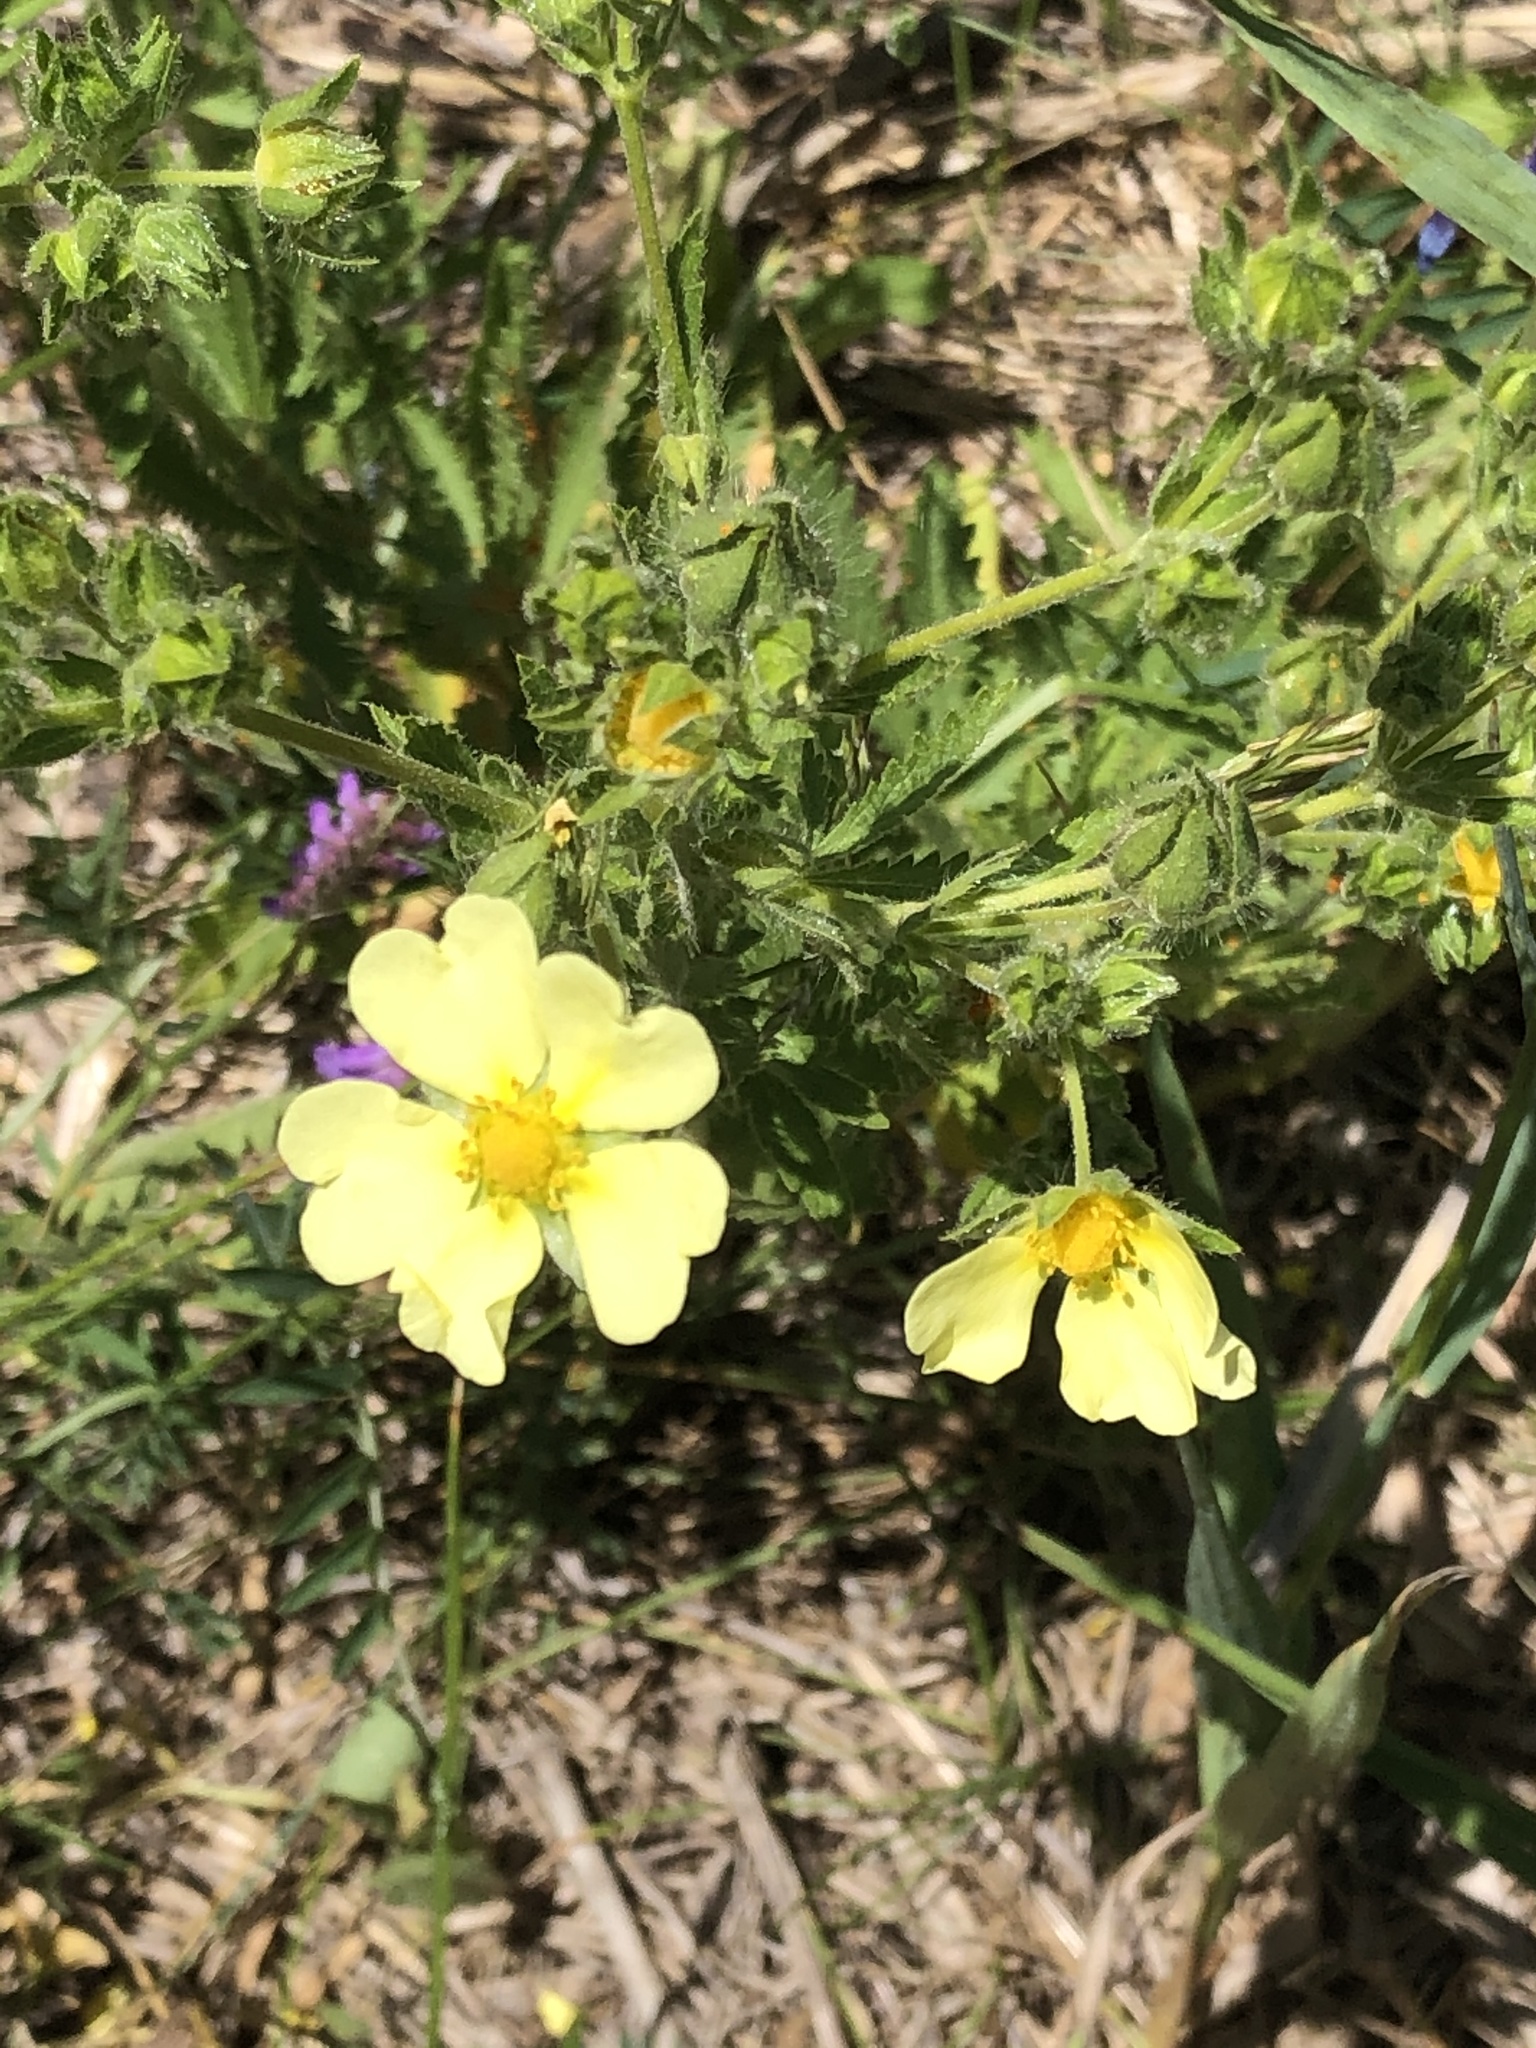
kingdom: Plantae
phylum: Tracheophyta
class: Magnoliopsida
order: Rosales
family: Rosaceae
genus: Potentilla
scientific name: Potentilla recta
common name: Sulphur cinquefoil
